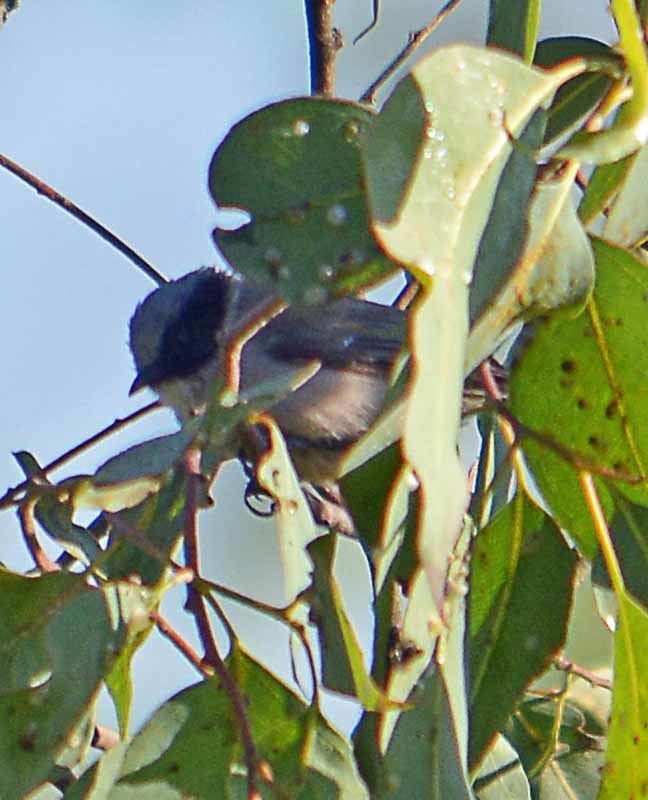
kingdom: Animalia
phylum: Chordata
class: Aves
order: Passeriformes
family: Aegithalidae
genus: Psaltriparus
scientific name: Psaltriparus minimus
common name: American bushtit
